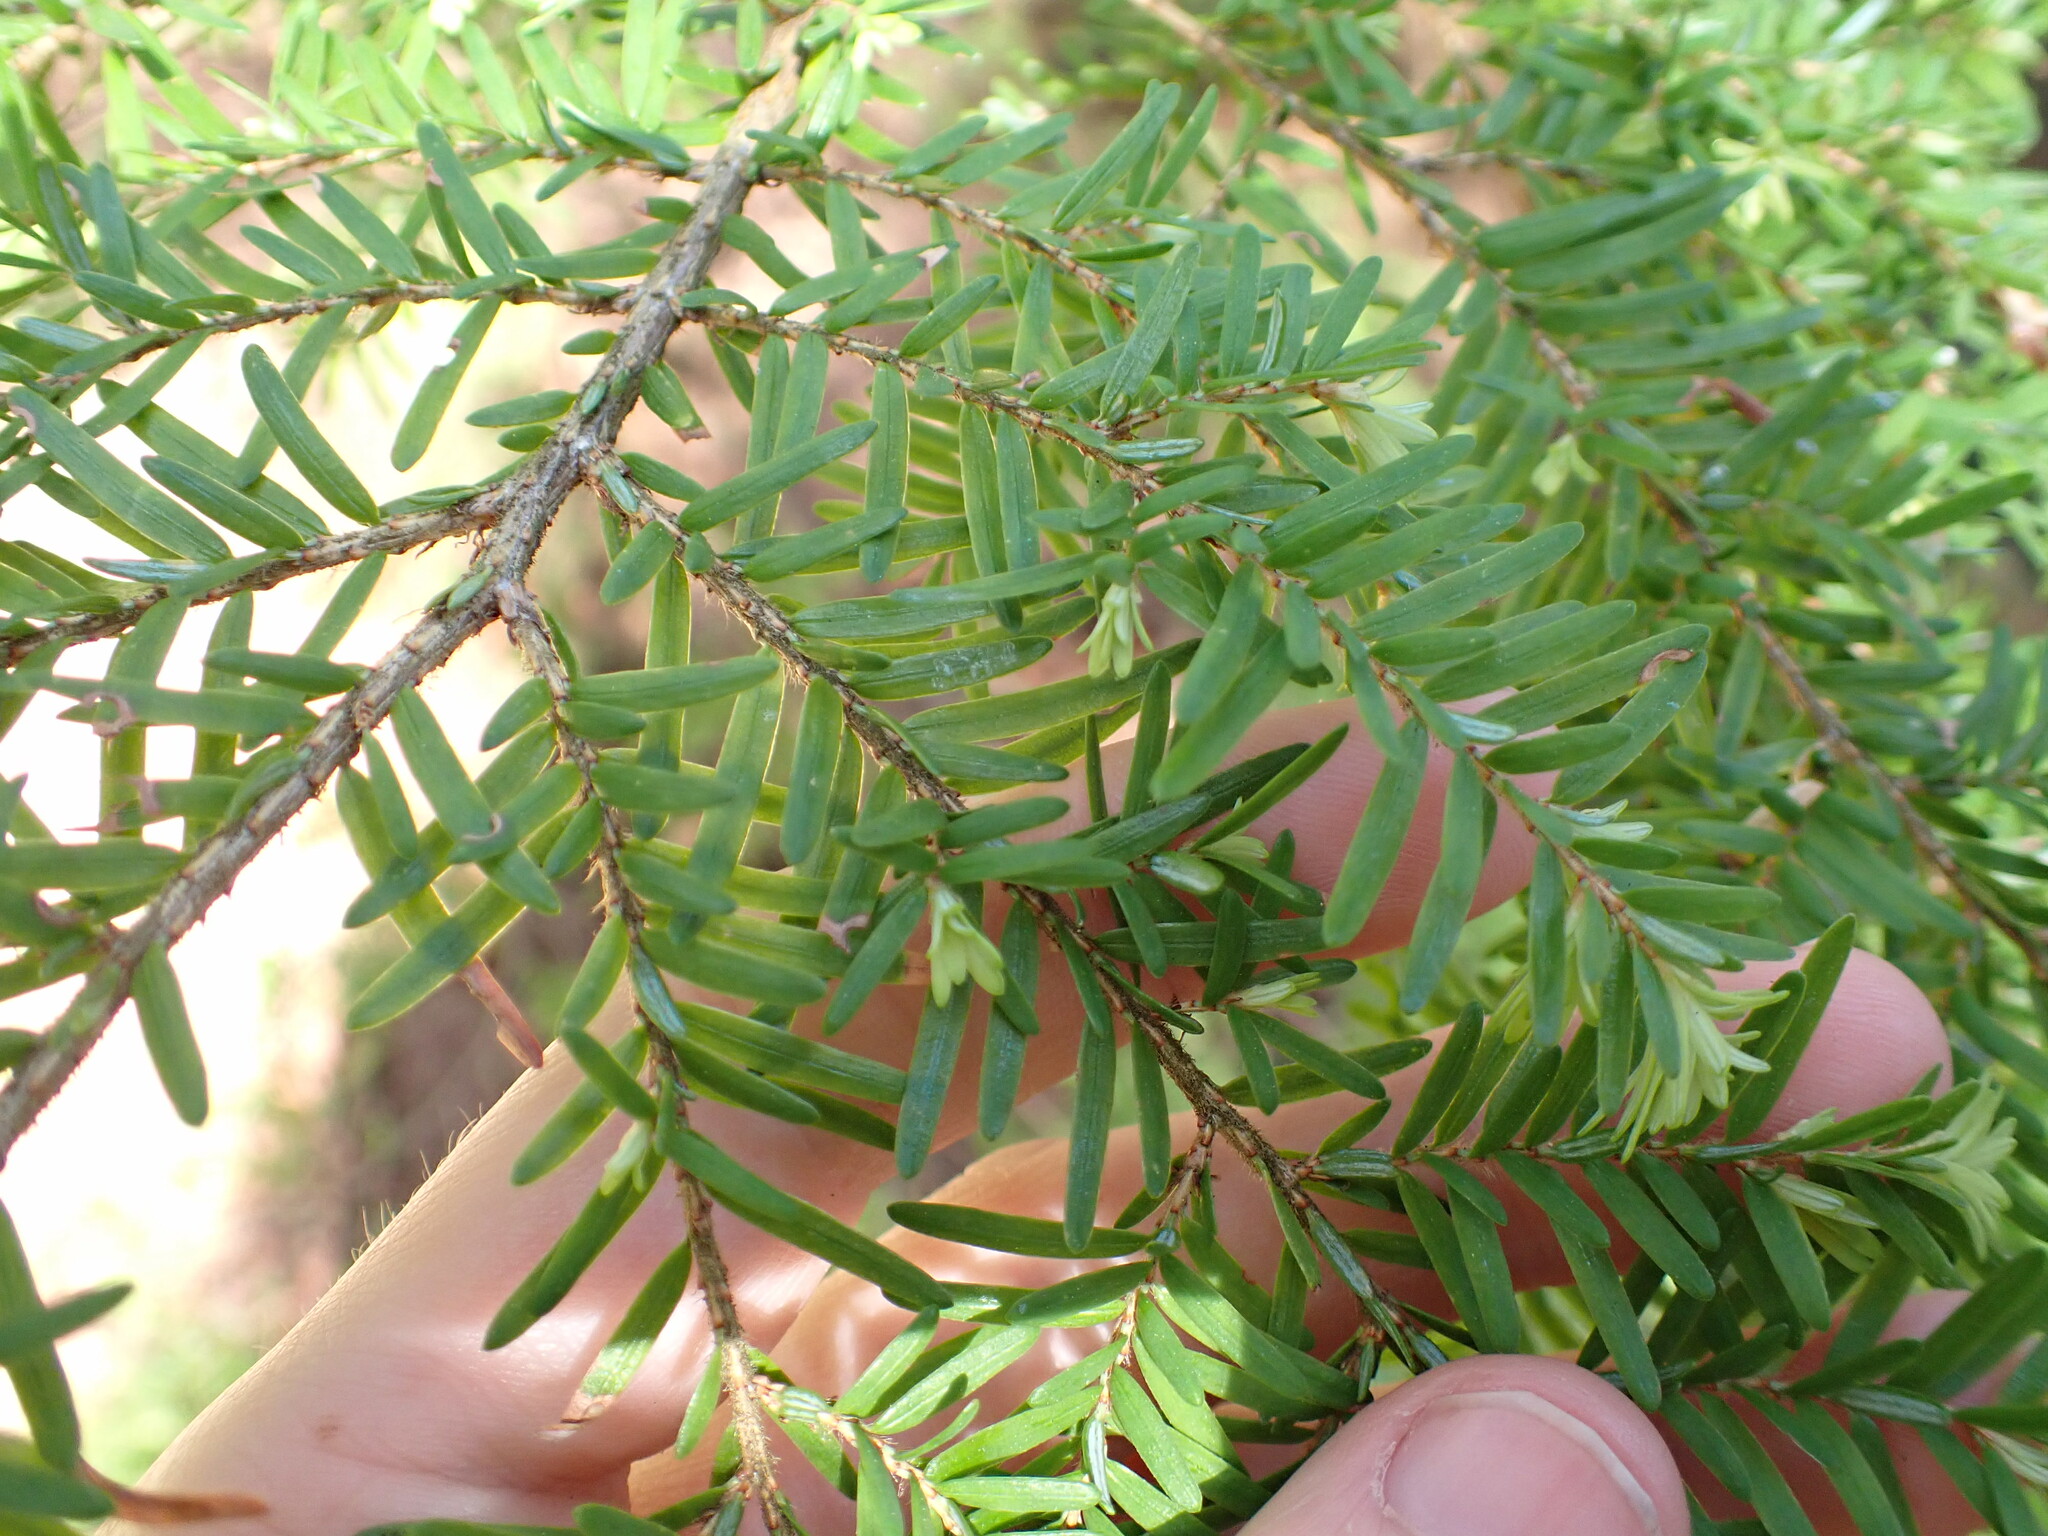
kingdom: Plantae
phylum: Tracheophyta
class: Pinopsida
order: Pinales
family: Pinaceae
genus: Tsuga
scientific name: Tsuga heterophylla
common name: Western hemlock
